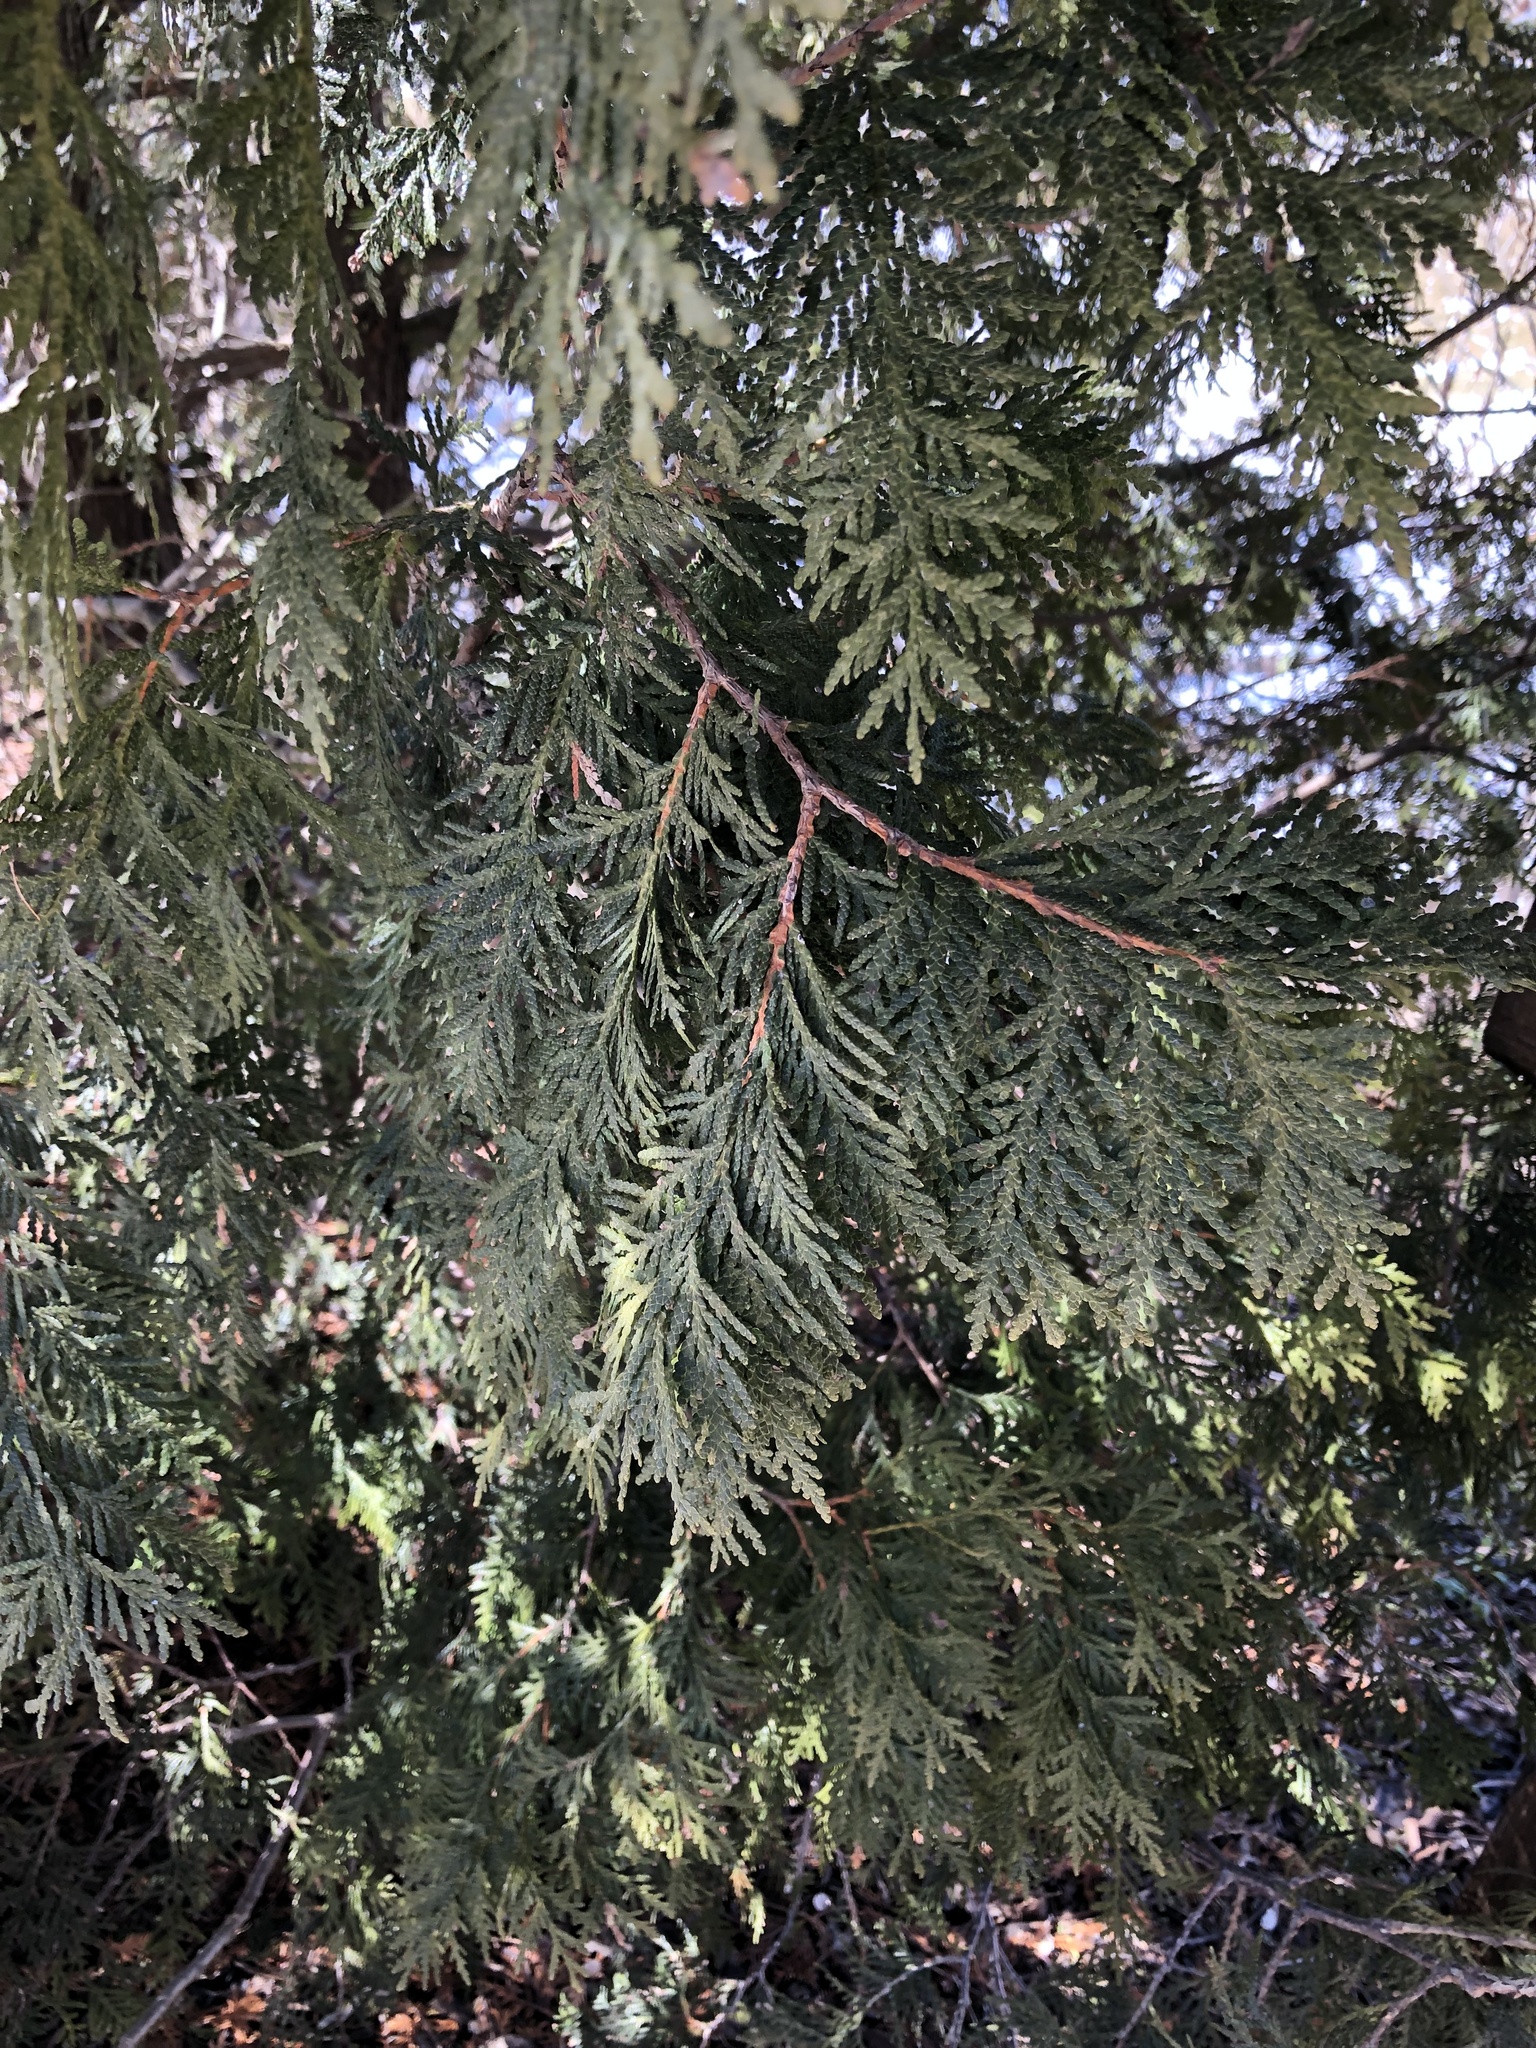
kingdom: Plantae
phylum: Tracheophyta
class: Pinopsida
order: Pinales
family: Cupressaceae
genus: Thuja
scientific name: Thuja occidentalis
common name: Northern white-cedar
